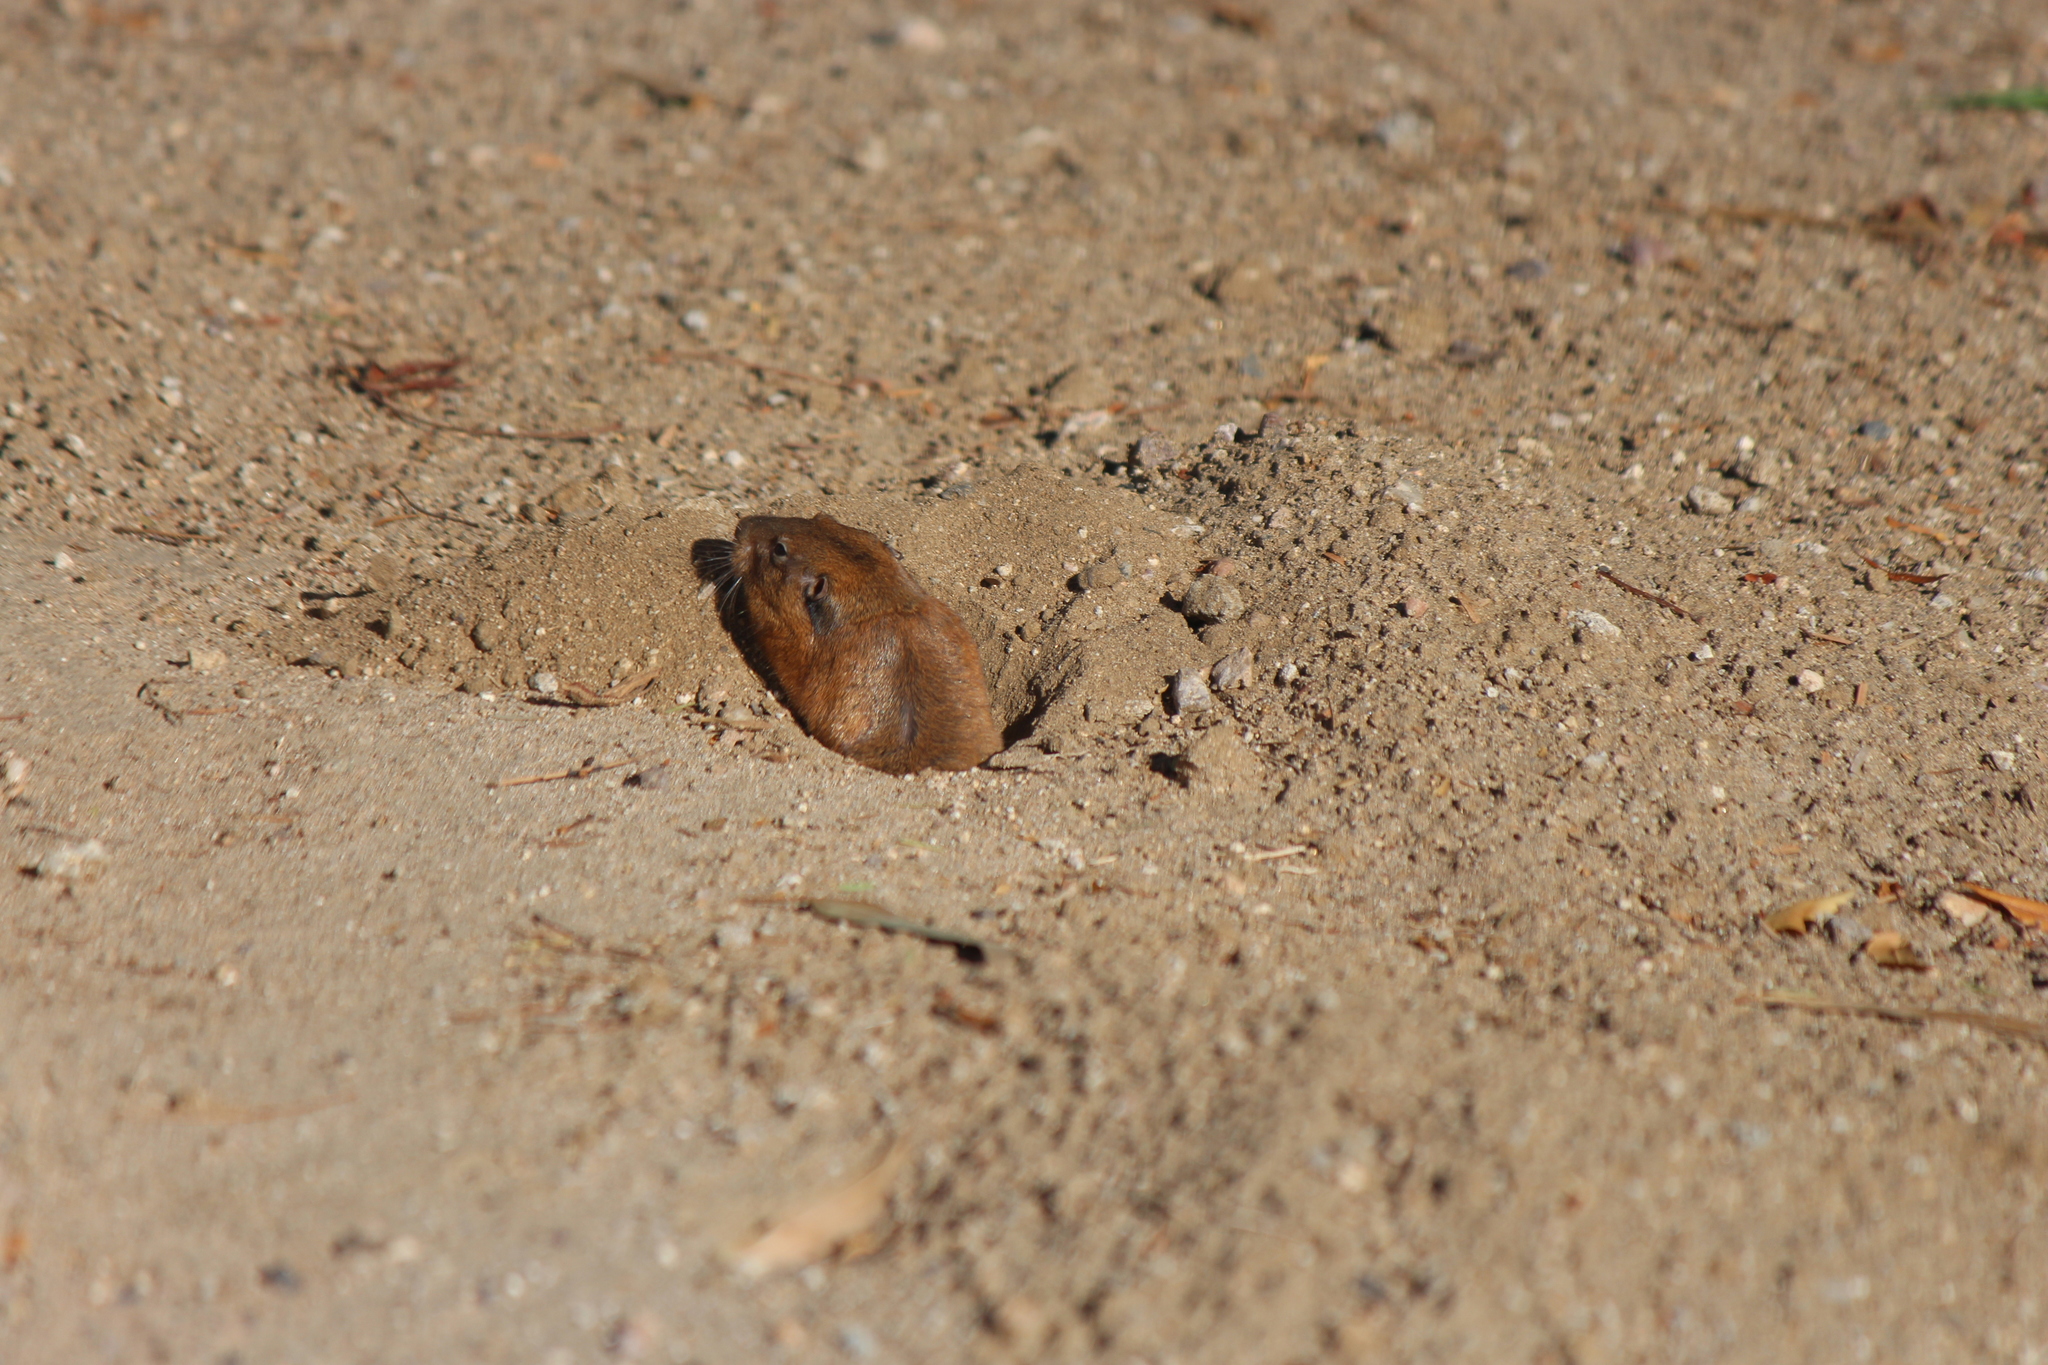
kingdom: Animalia
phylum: Chordata
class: Mammalia
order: Rodentia
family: Geomyidae
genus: Thomomys
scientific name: Thomomys bottae
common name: Botta's pocket gopher
